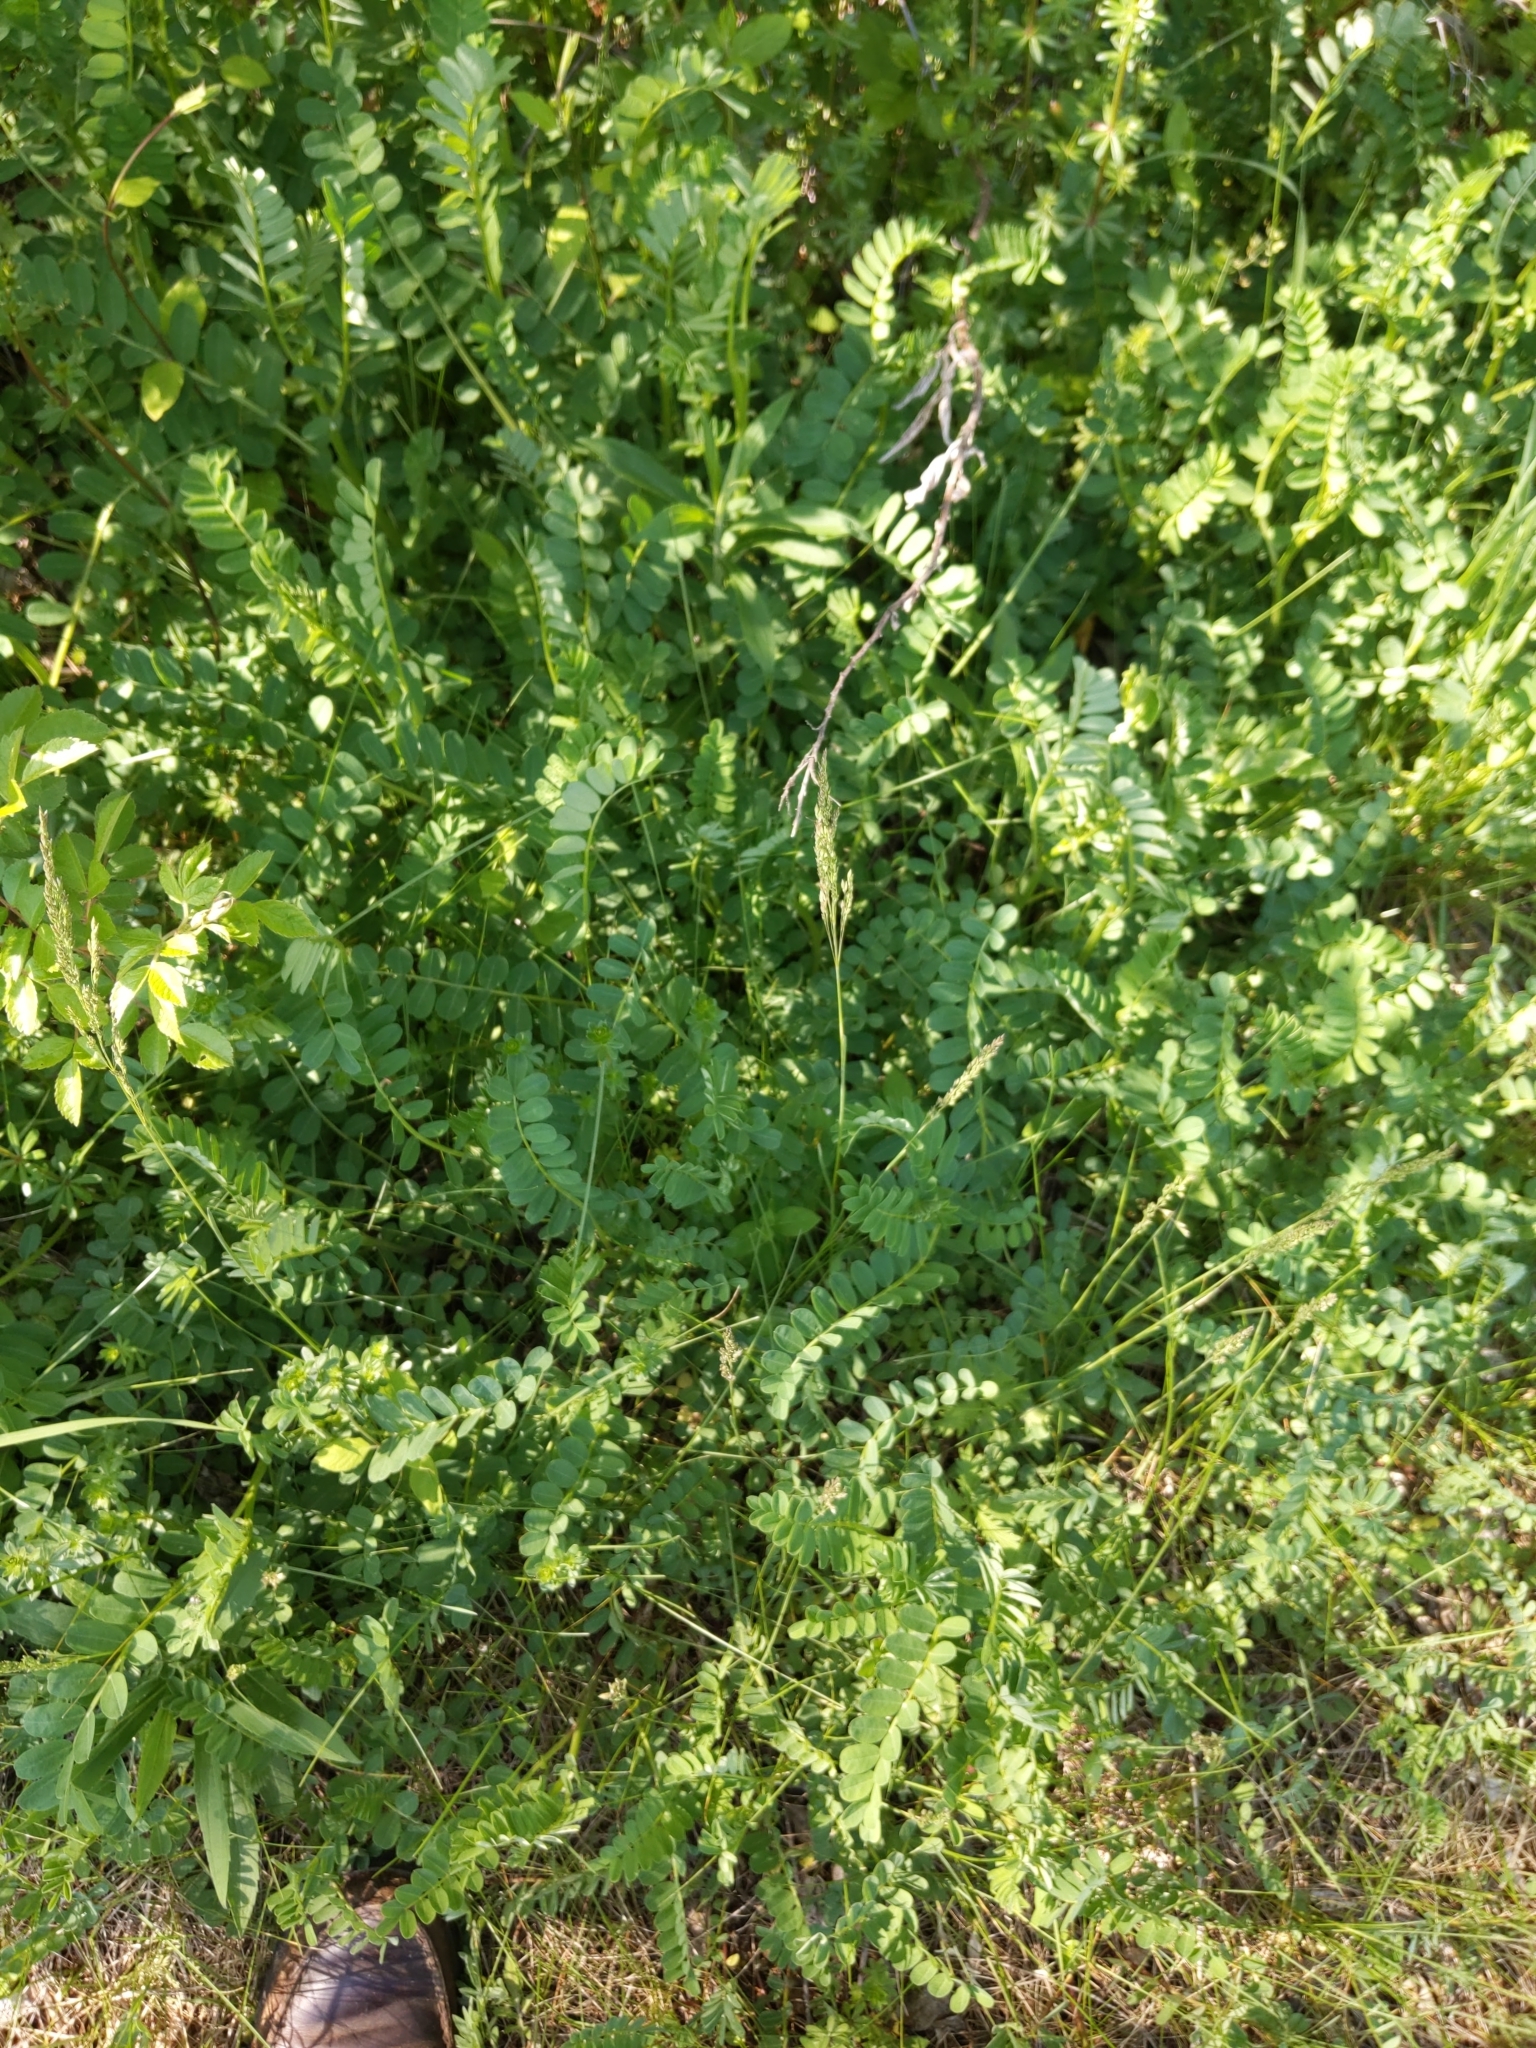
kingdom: Plantae
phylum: Tracheophyta
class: Magnoliopsida
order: Fabales
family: Fabaceae
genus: Coronilla
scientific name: Coronilla varia
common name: Crownvetch
